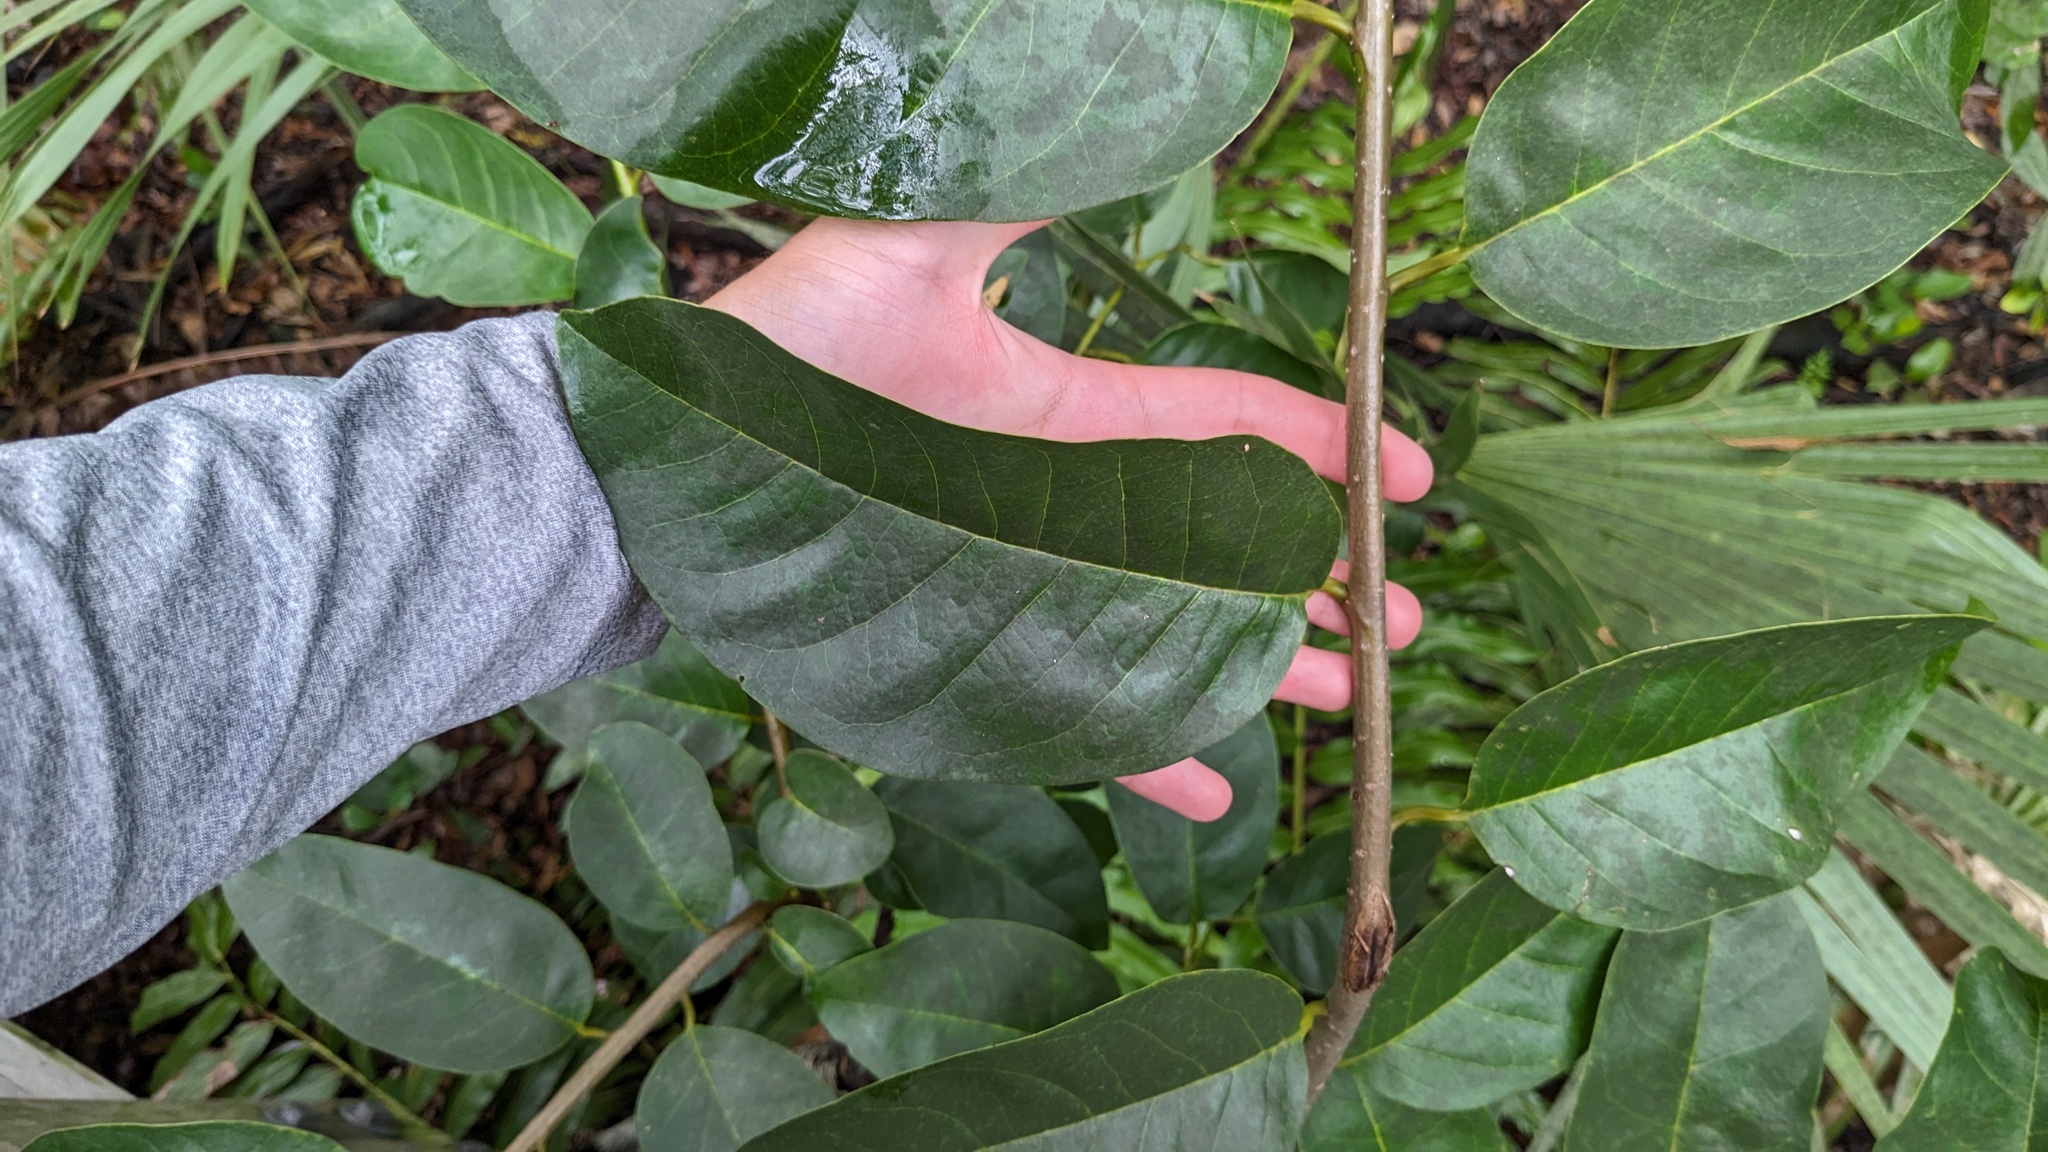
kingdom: Plantae
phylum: Tracheophyta
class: Magnoliopsida
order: Magnoliales
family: Annonaceae
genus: Annona
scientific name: Annona glabra
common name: Monkey apple
